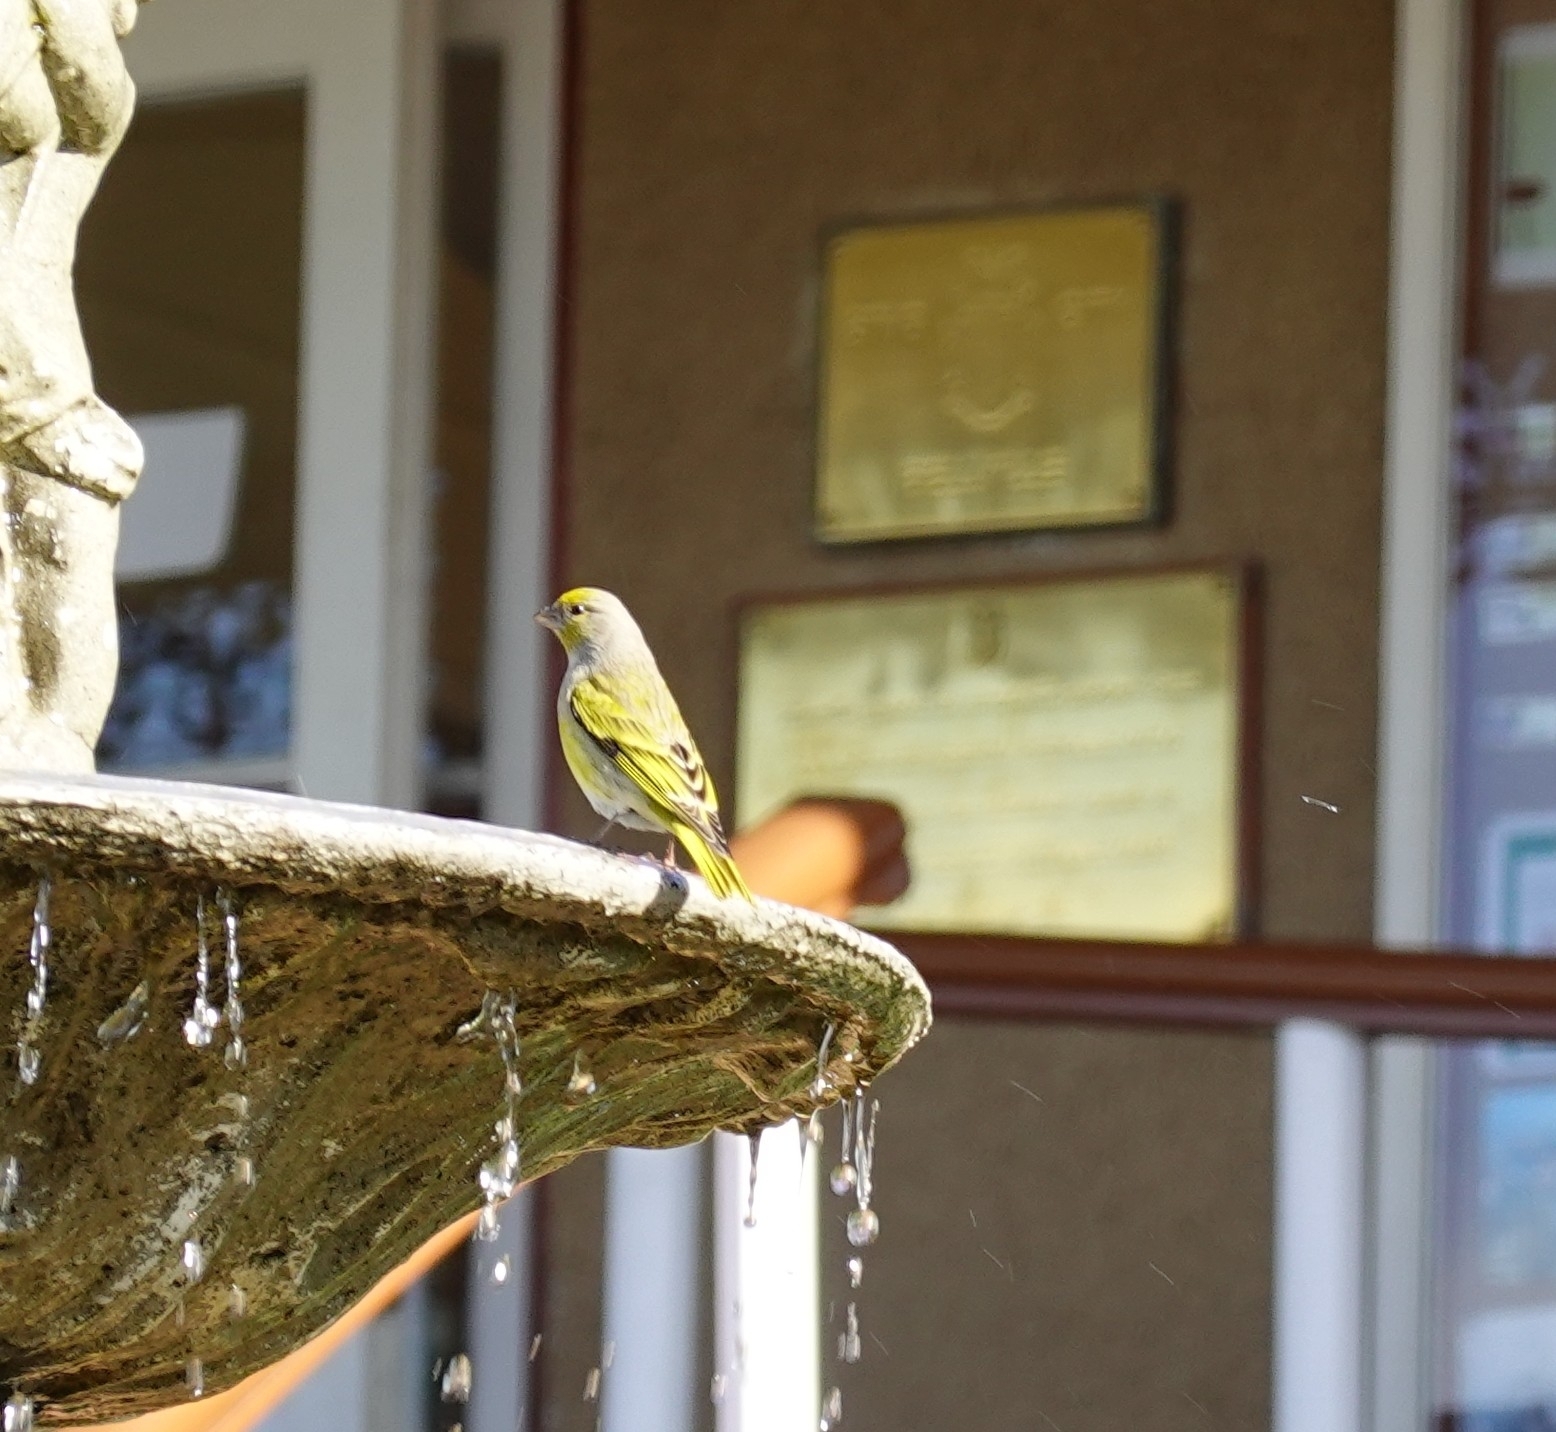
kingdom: Animalia
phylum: Chordata
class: Aves
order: Passeriformes
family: Fringillidae
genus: Serinus
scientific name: Serinus canicollis
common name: Cape canary
